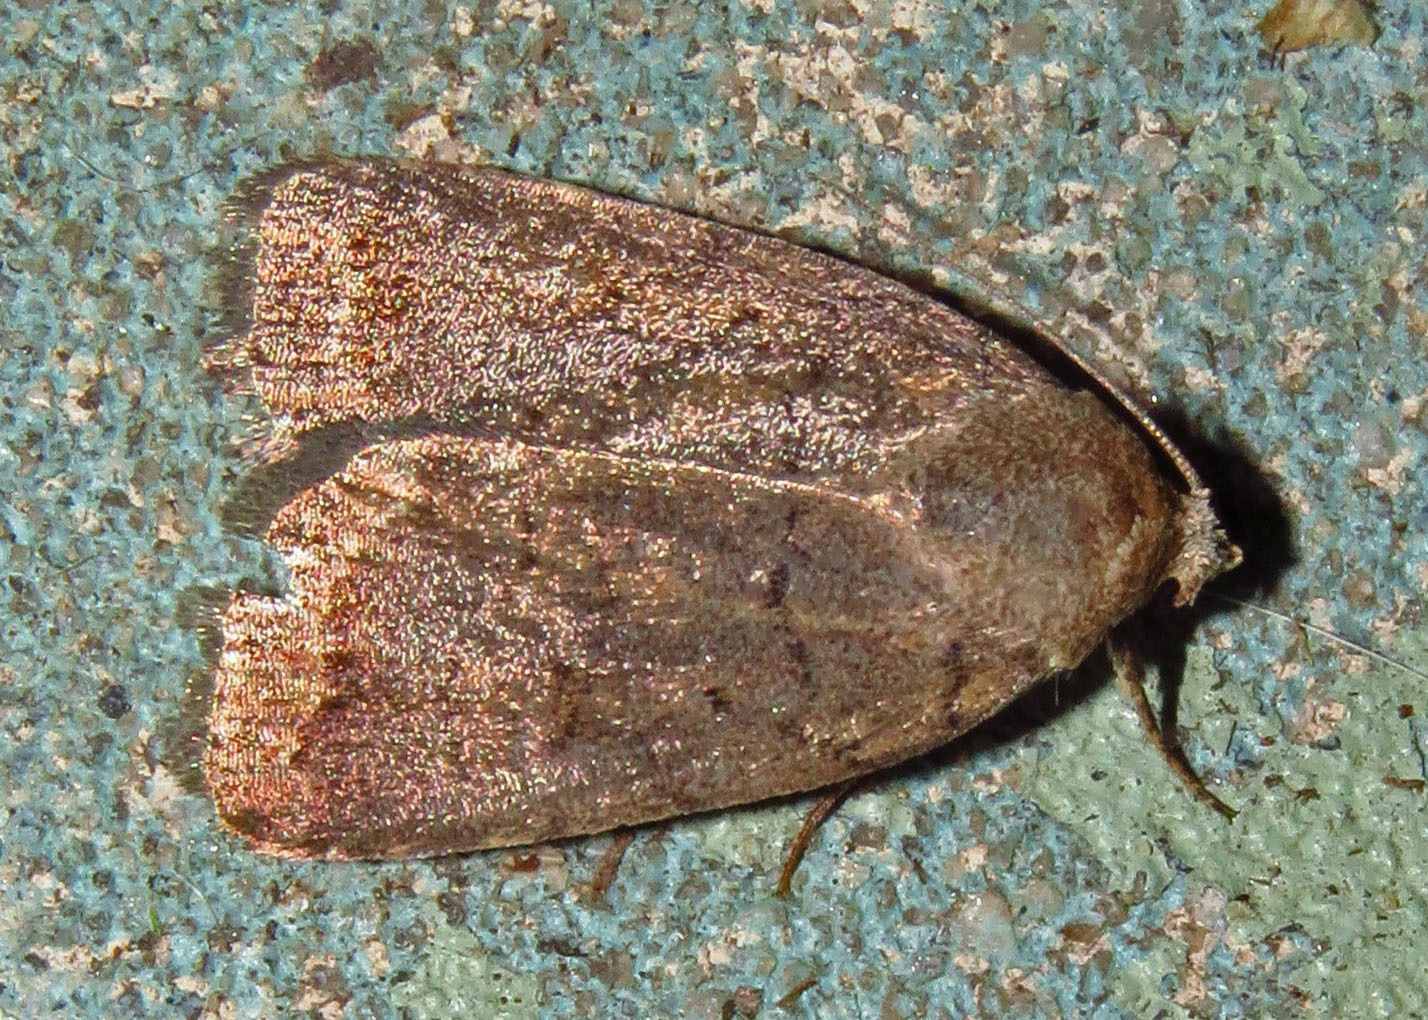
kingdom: Animalia
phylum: Arthropoda
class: Insecta
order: Lepidoptera
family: Noctuidae
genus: Athetis
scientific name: Athetis tarda
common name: Slowpoke moth
